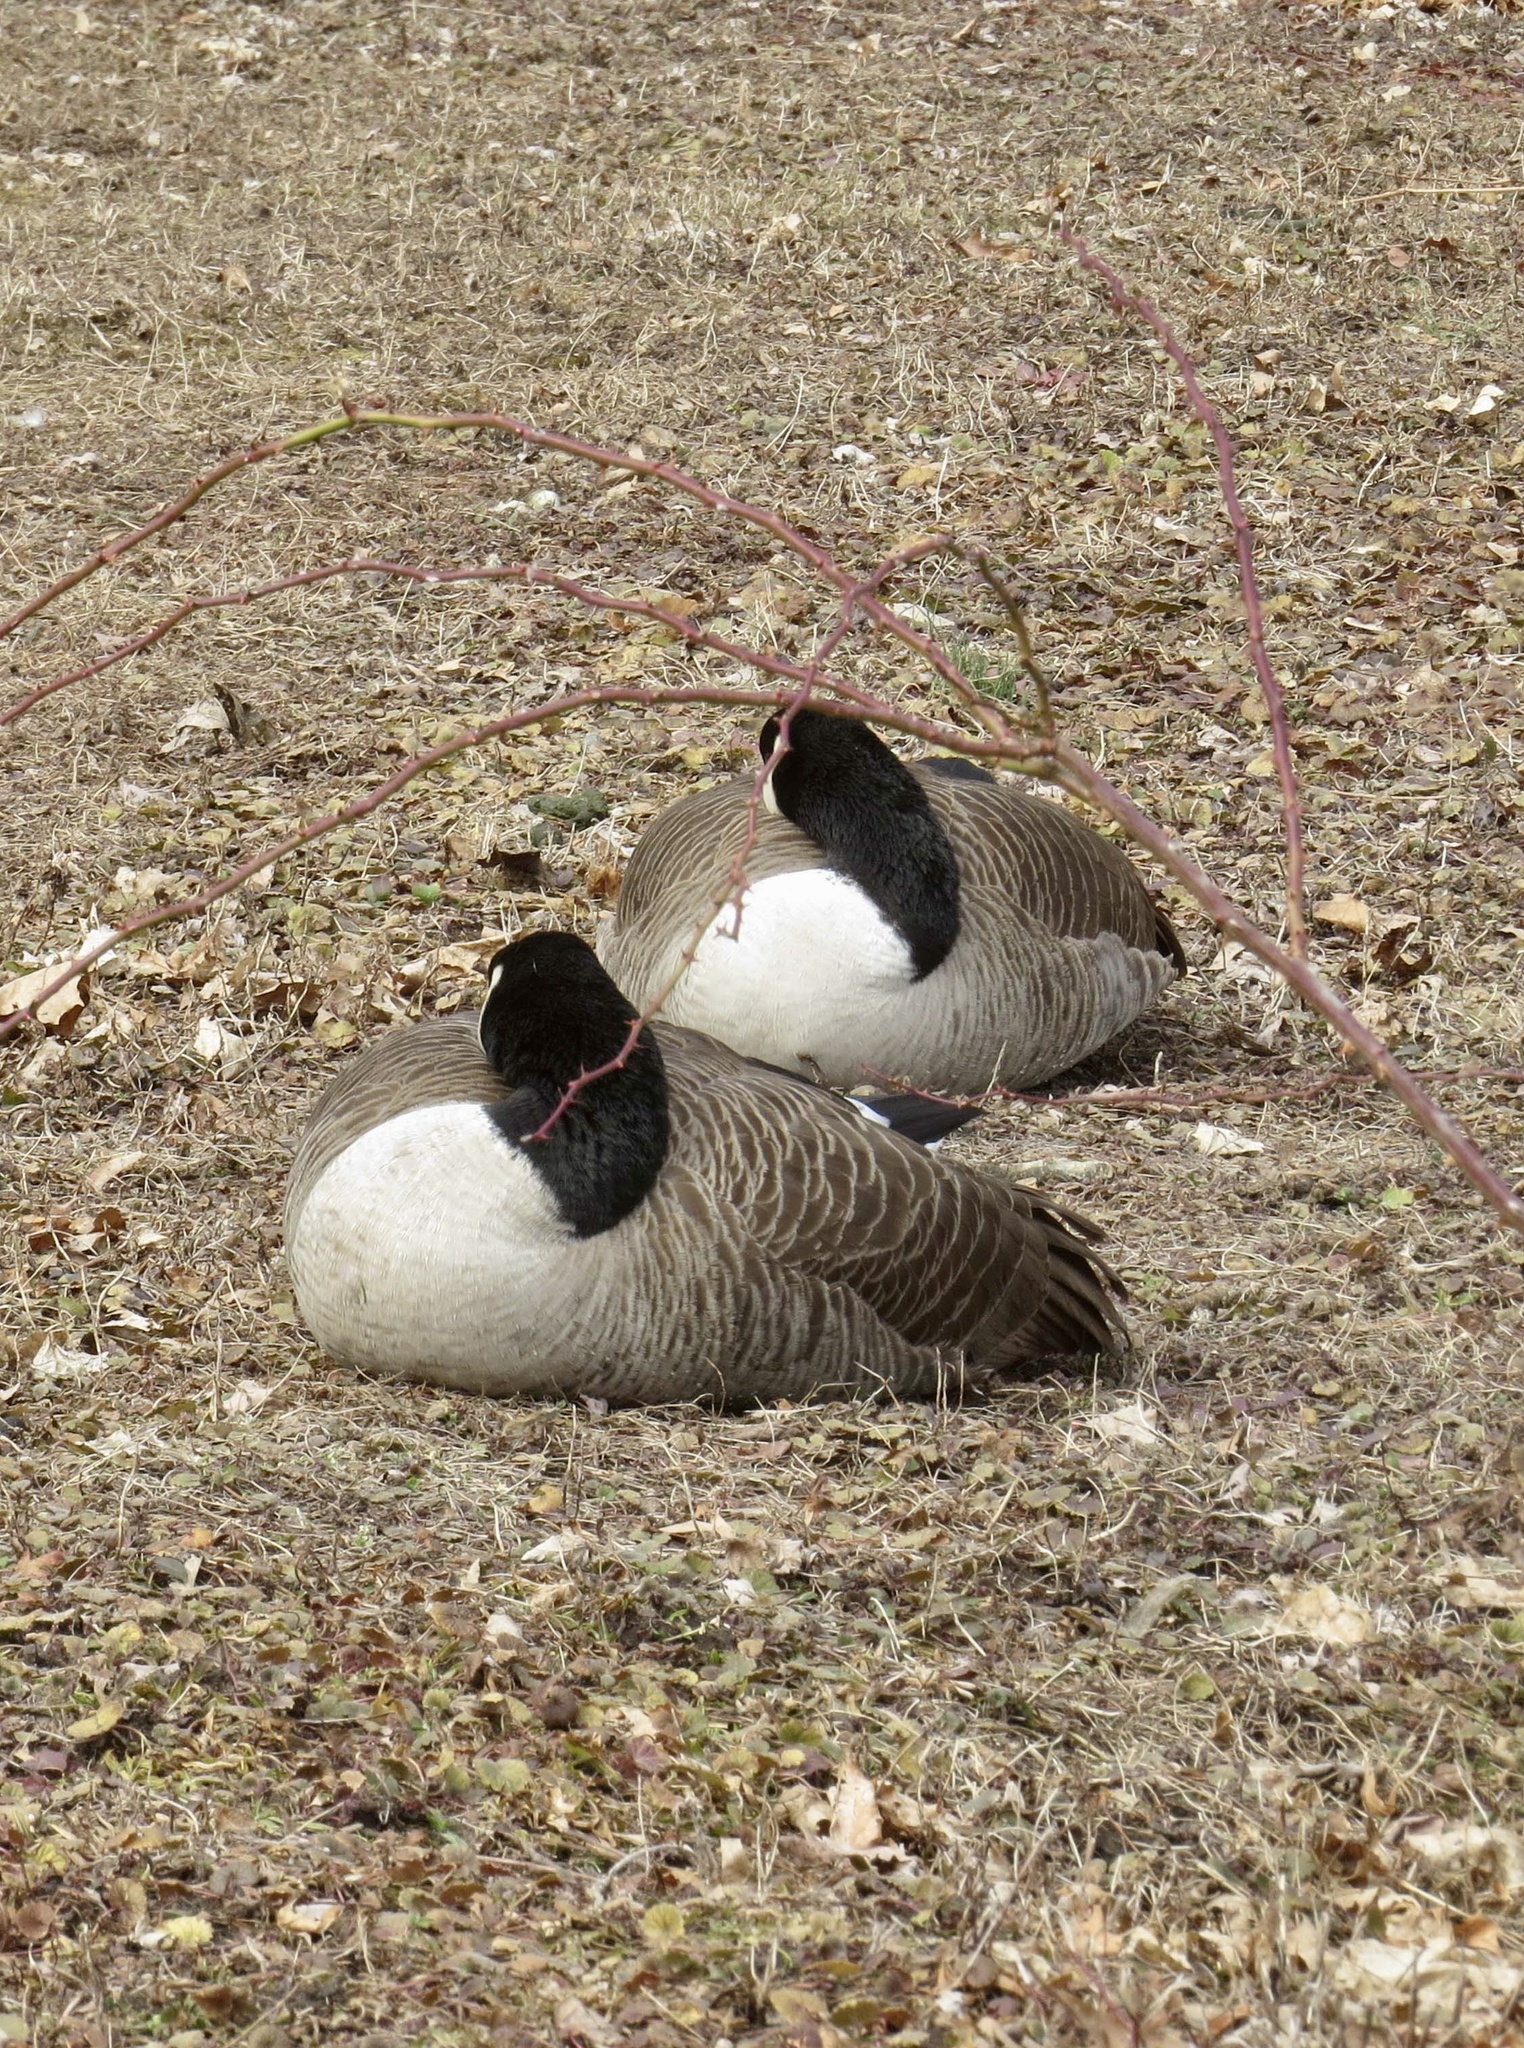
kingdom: Animalia
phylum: Chordata
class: Aves
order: Anseriformes
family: Anatidae
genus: Branta
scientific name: Branta canadensis
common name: Canada goose
